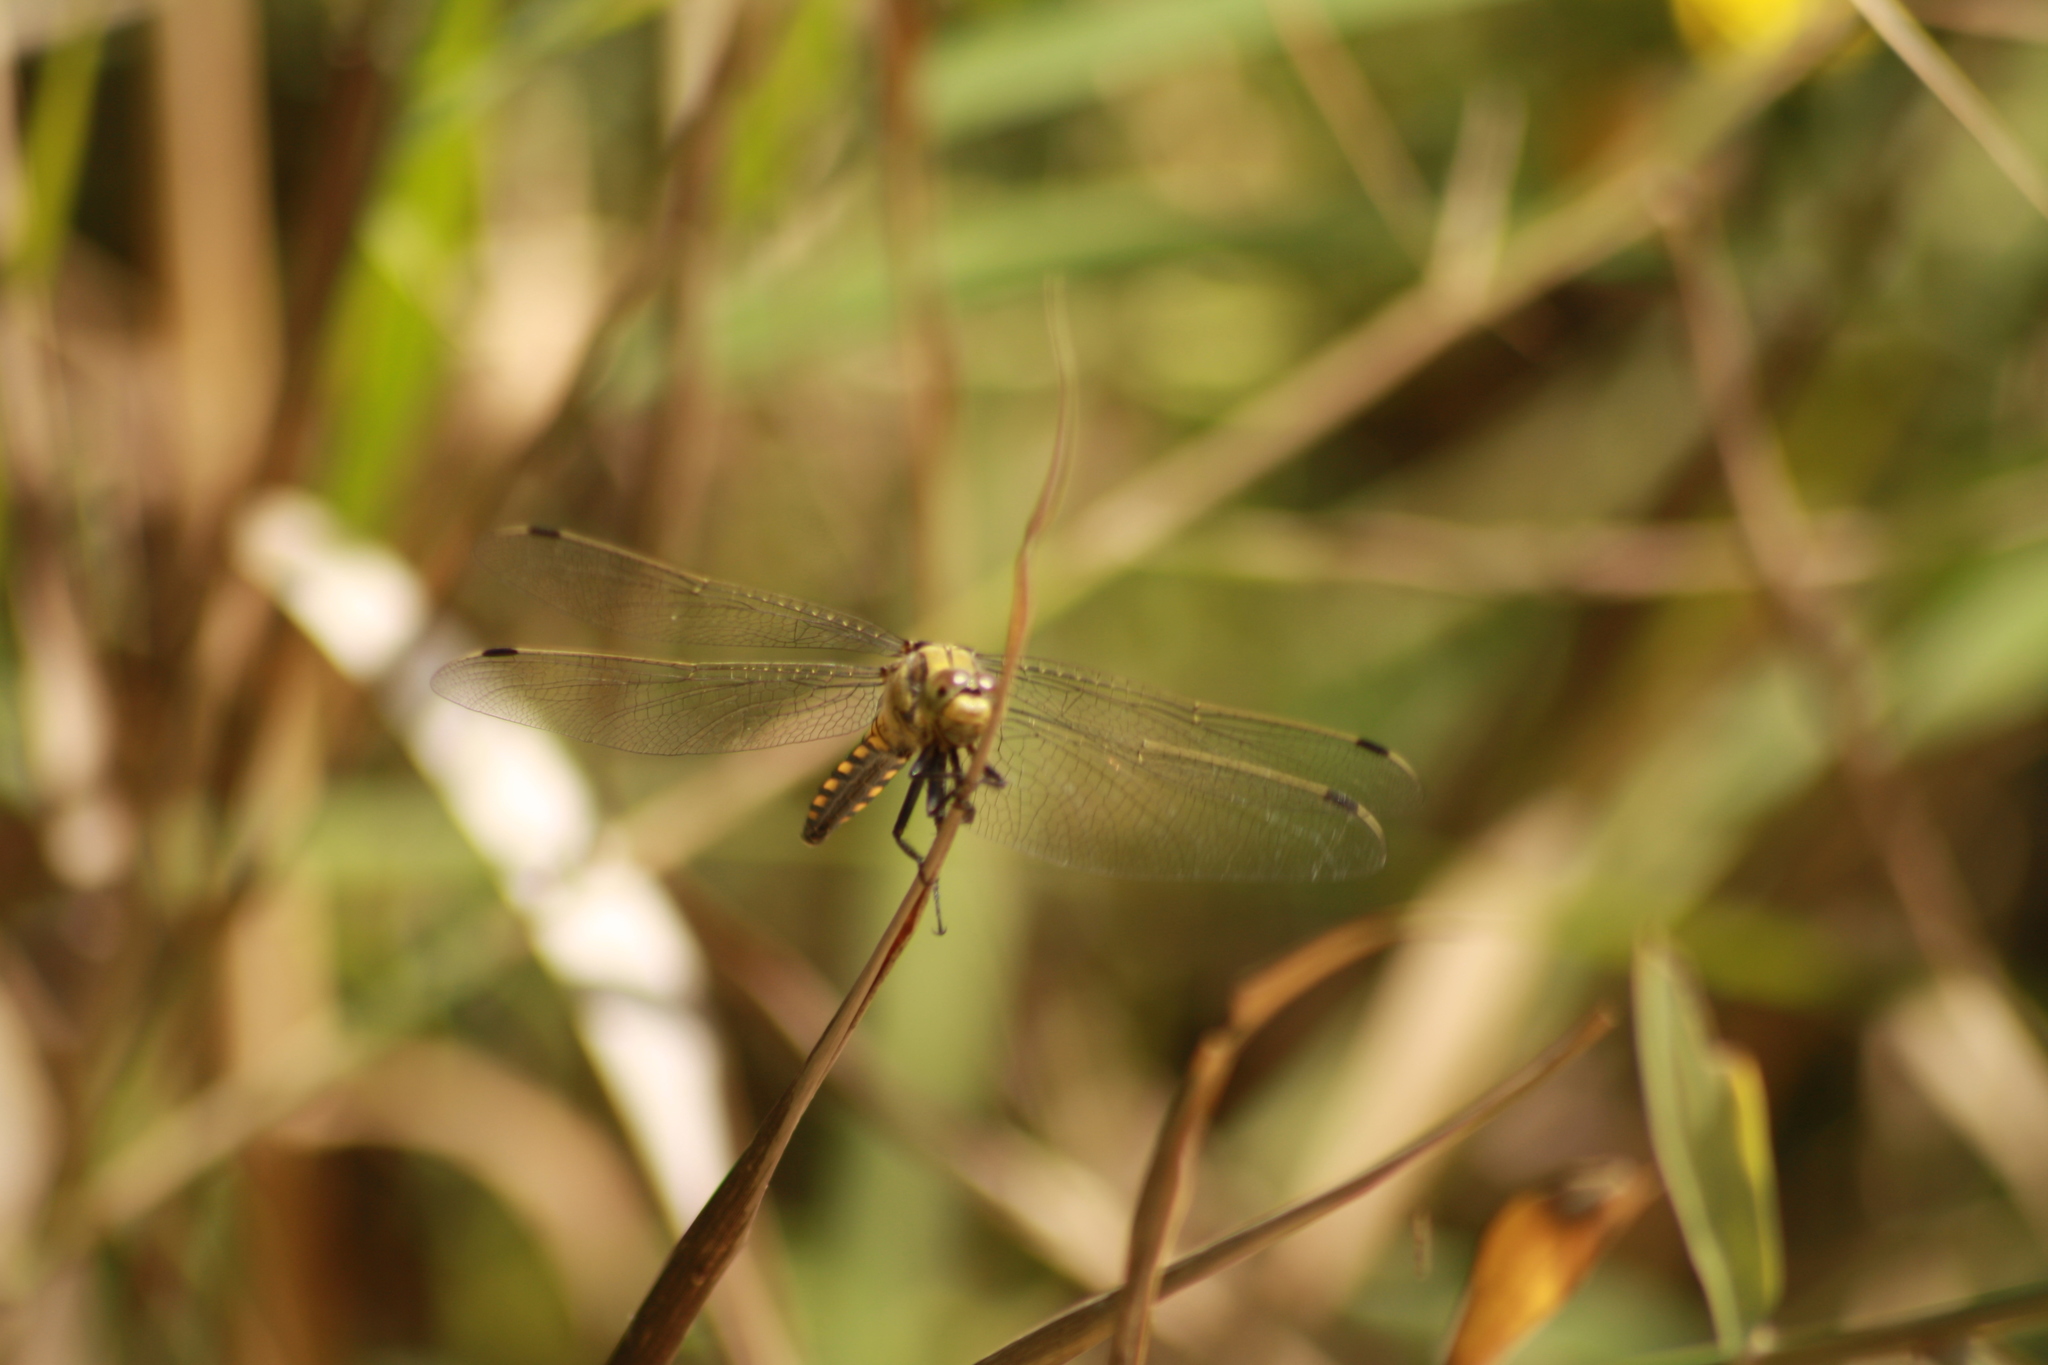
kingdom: Animalia
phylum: Arthropoda
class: Insecta
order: Odonata
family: Libellulidae
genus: Orthetrum
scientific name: Orthetrum cancellatum
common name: Black-tailed skimmer
